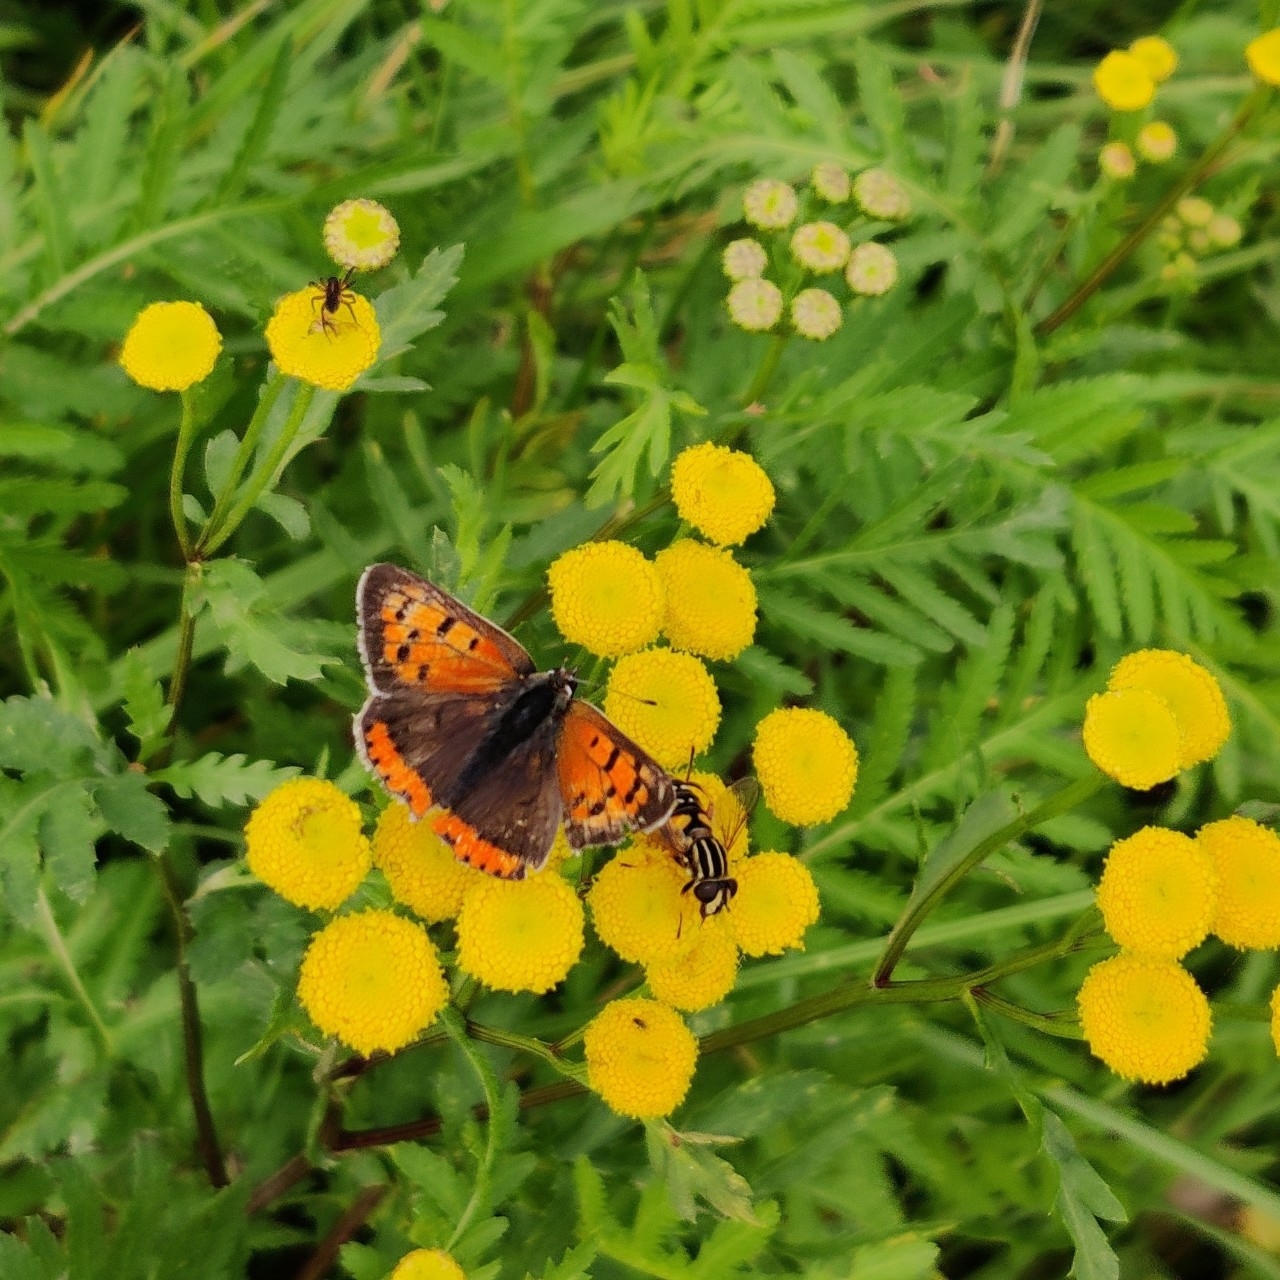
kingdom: Animalia
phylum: Arthropoda
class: Insecta
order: Lepidoptera
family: Lycaenidae
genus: Lycaena
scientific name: Lycaena phlaeas
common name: Small copper
